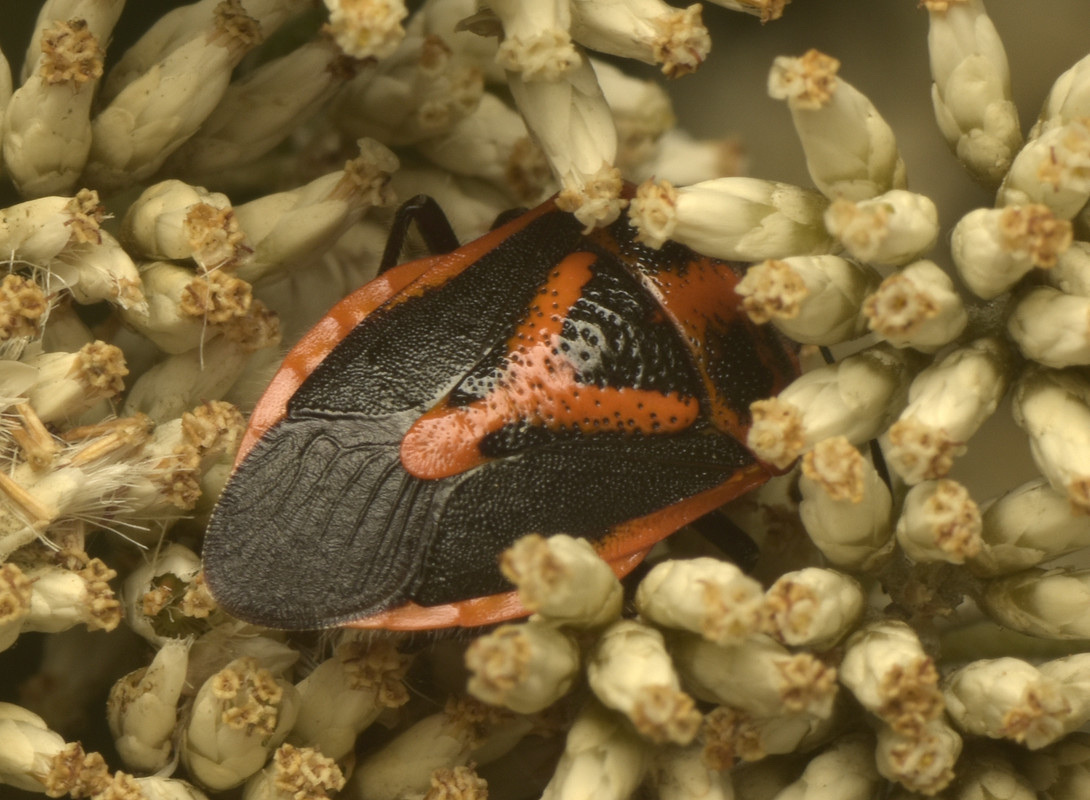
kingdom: Animalia
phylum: Arthropoda
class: Insecta
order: Hemiptera
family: Pentatomidae
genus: Agonoscelis
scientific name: Agonoscelis rutila
